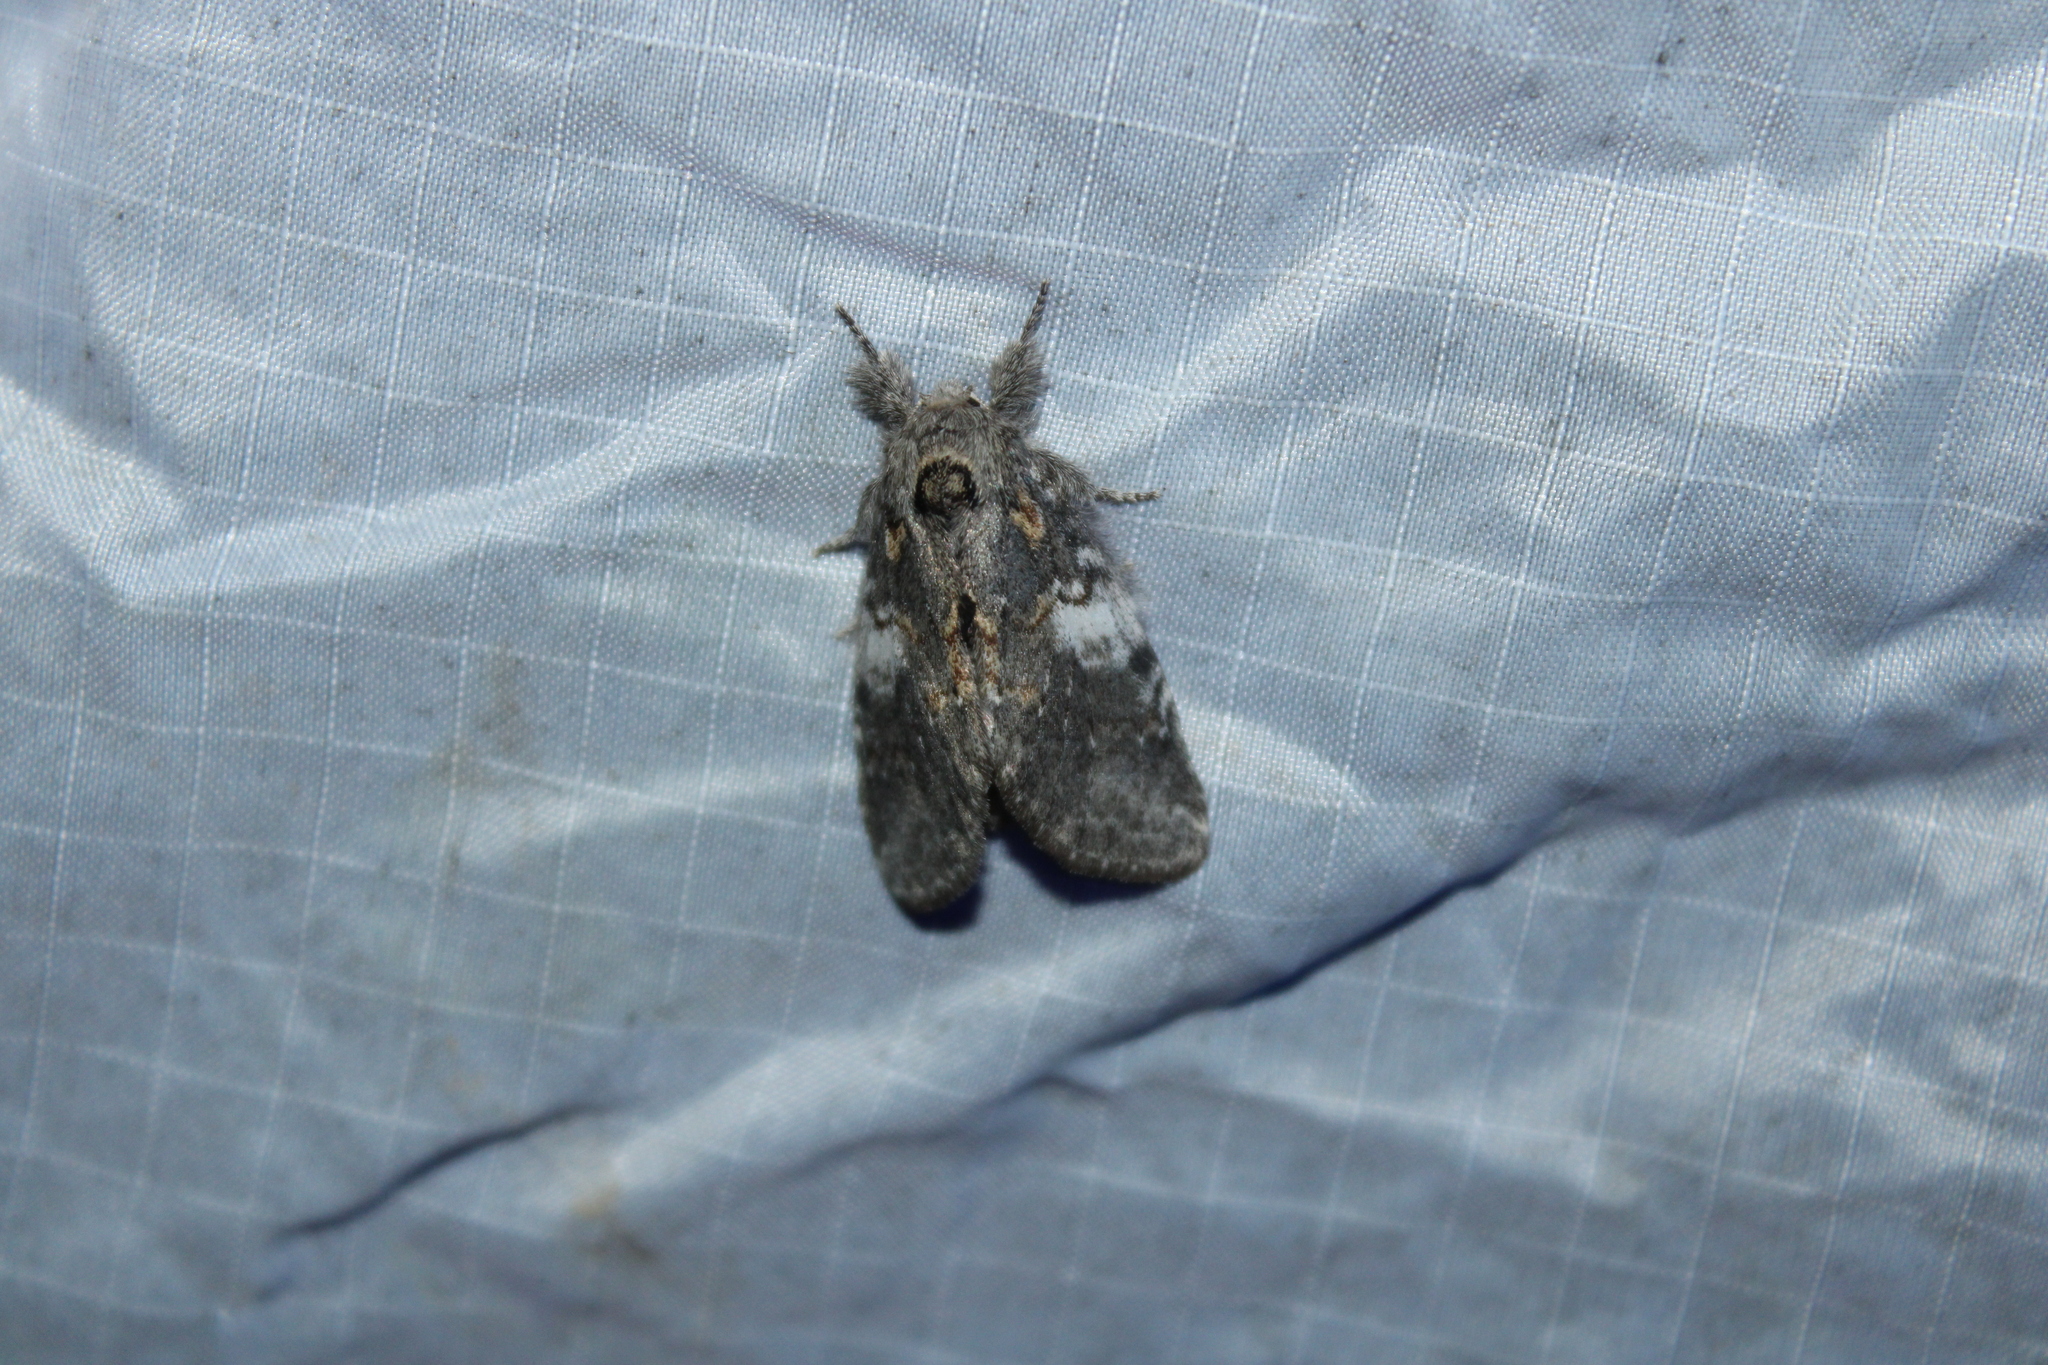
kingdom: Animalia
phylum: Arthropoda
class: Insecta
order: Lepidoptera
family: Notodontidae
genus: Peridea
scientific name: Peridea angulosa
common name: Angulose prominent
